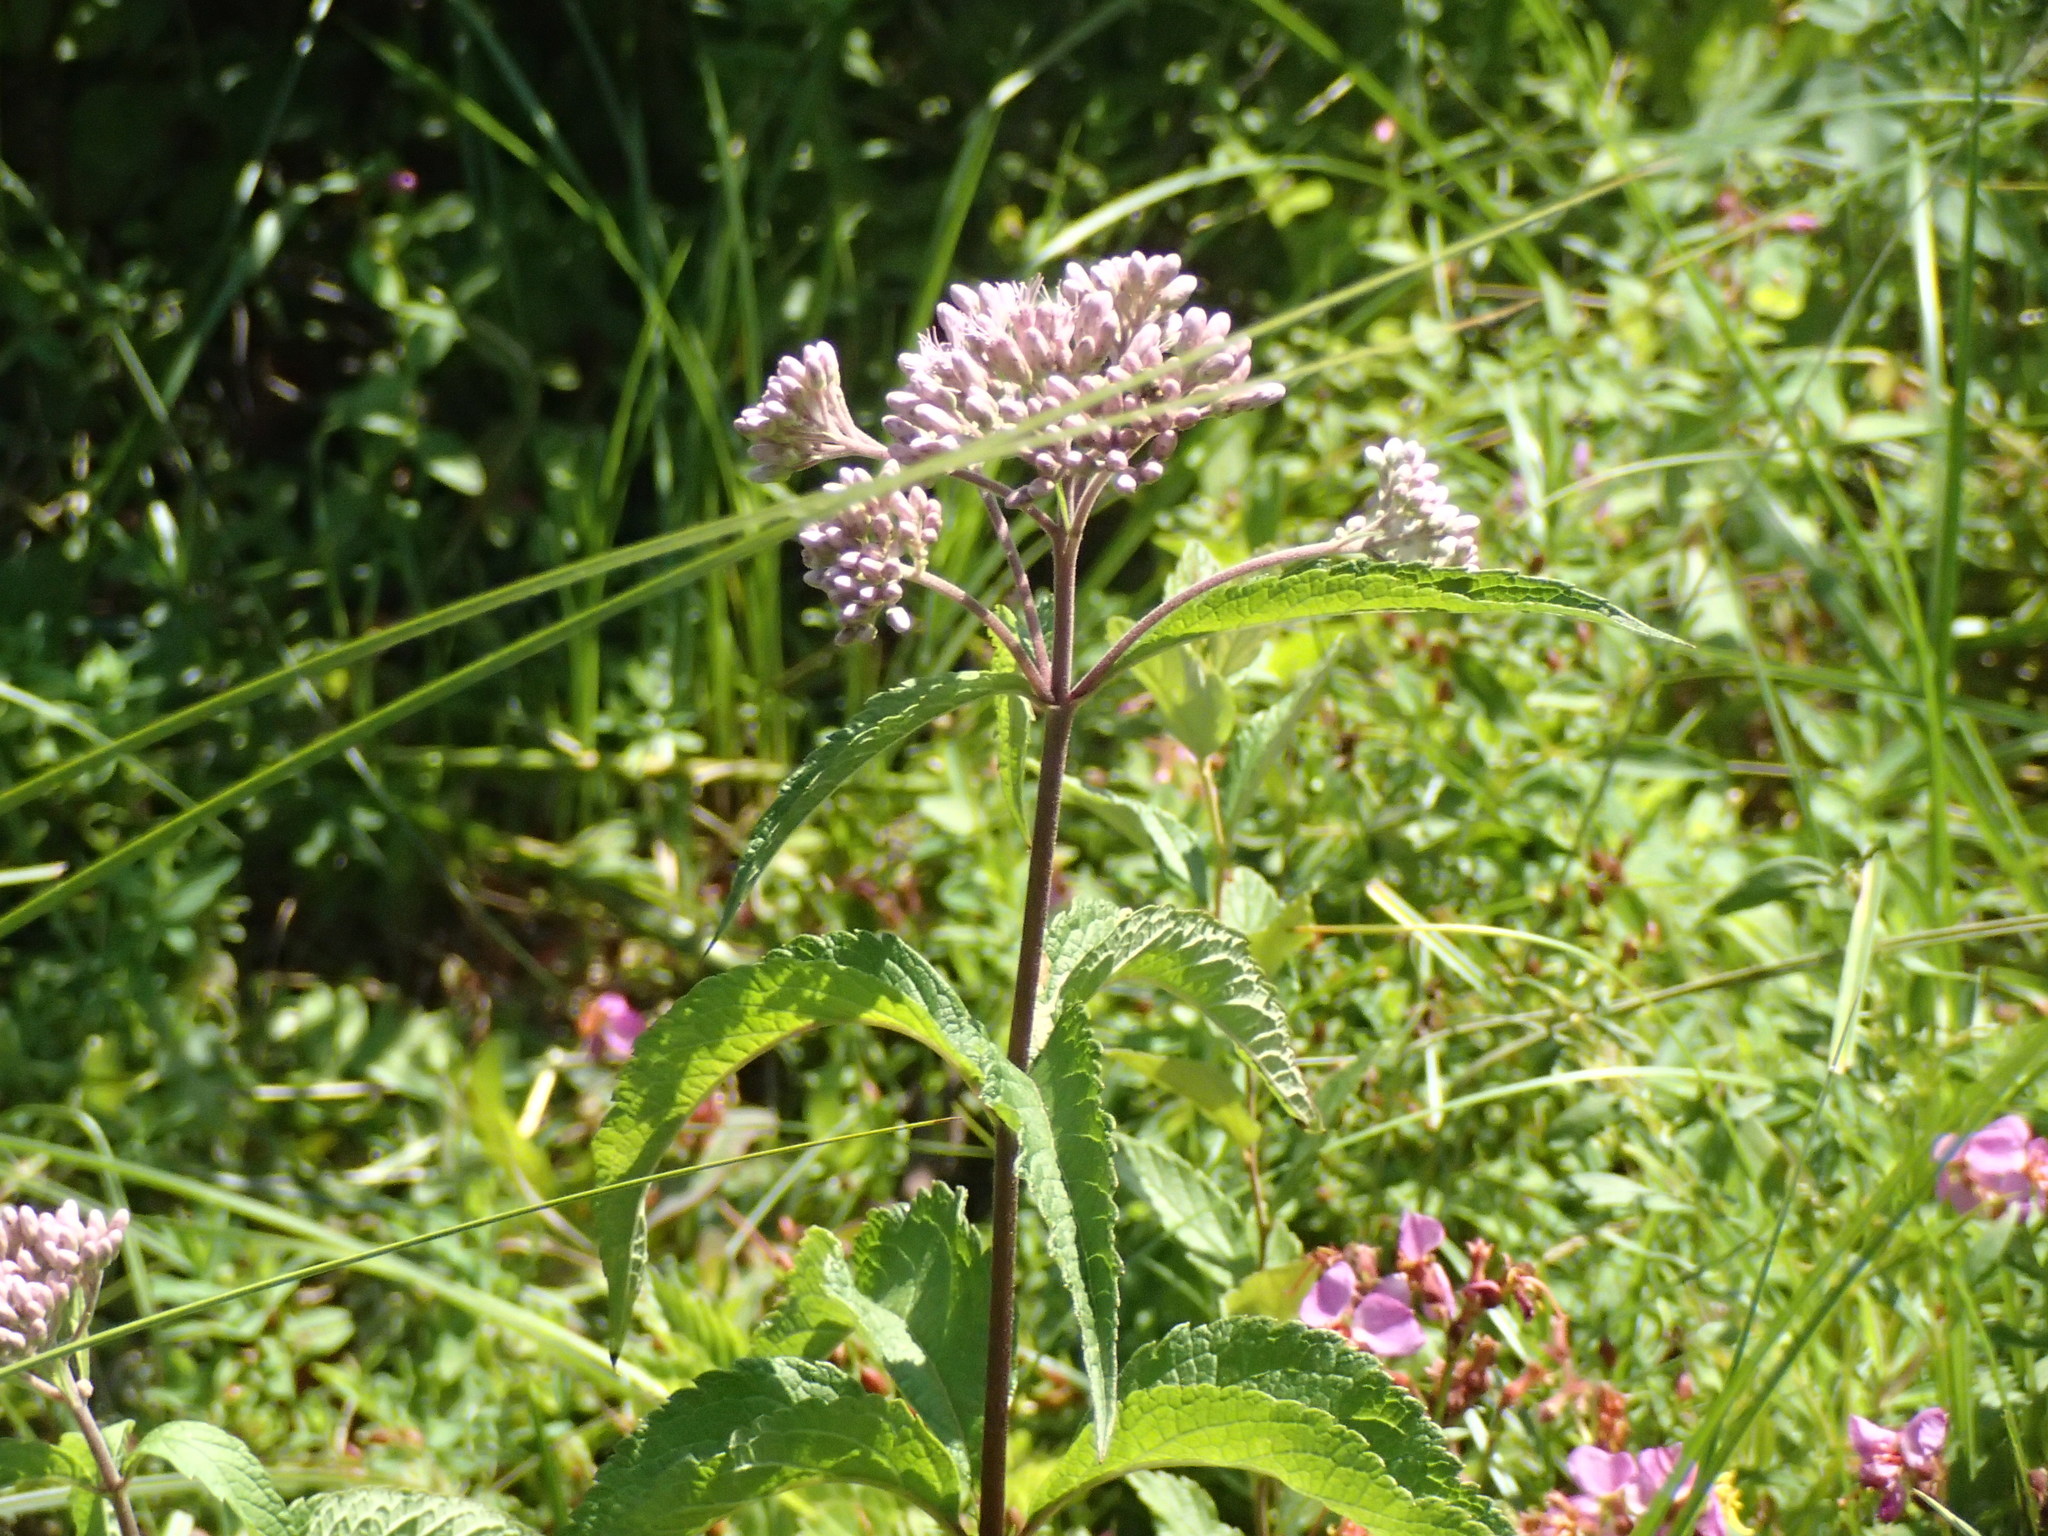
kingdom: Plantae
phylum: Tracheophyta
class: Magnoliopsida
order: Asterales
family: Asteraceae
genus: Eutrochium
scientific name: Eutrochium maculatum
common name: Spotted joe pye weed
